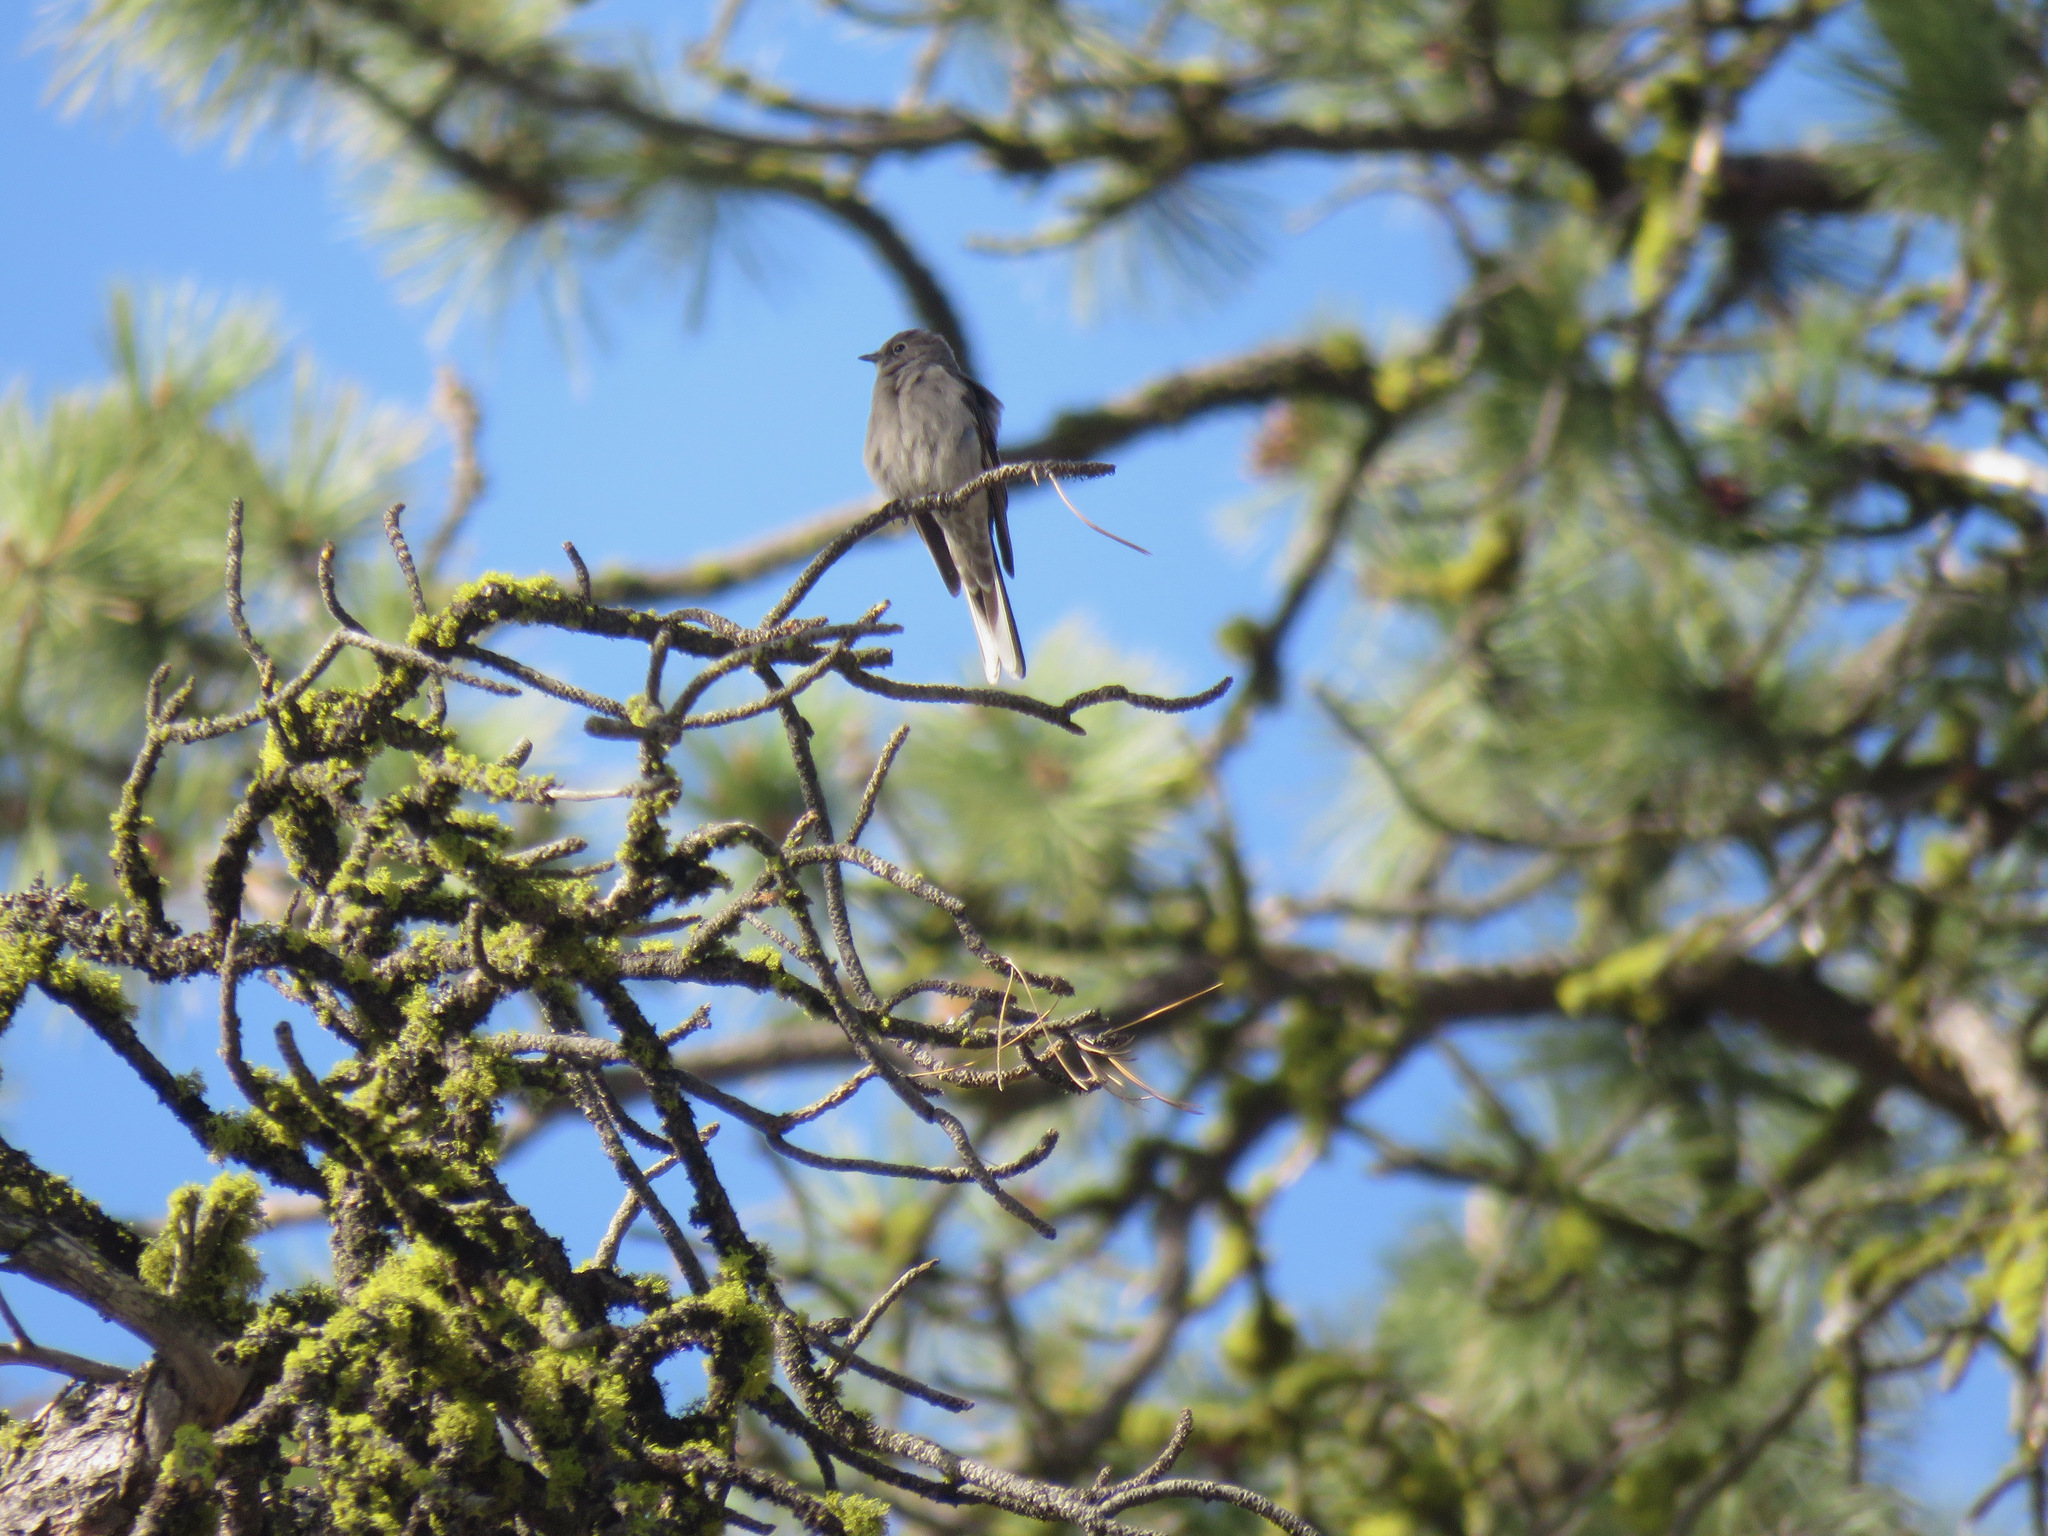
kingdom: Animalia
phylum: Chordata
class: Aves
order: Passeriformes
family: Turdidae
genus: Myadestes
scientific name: Myadestes townsendi
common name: Townsend's solitaire
